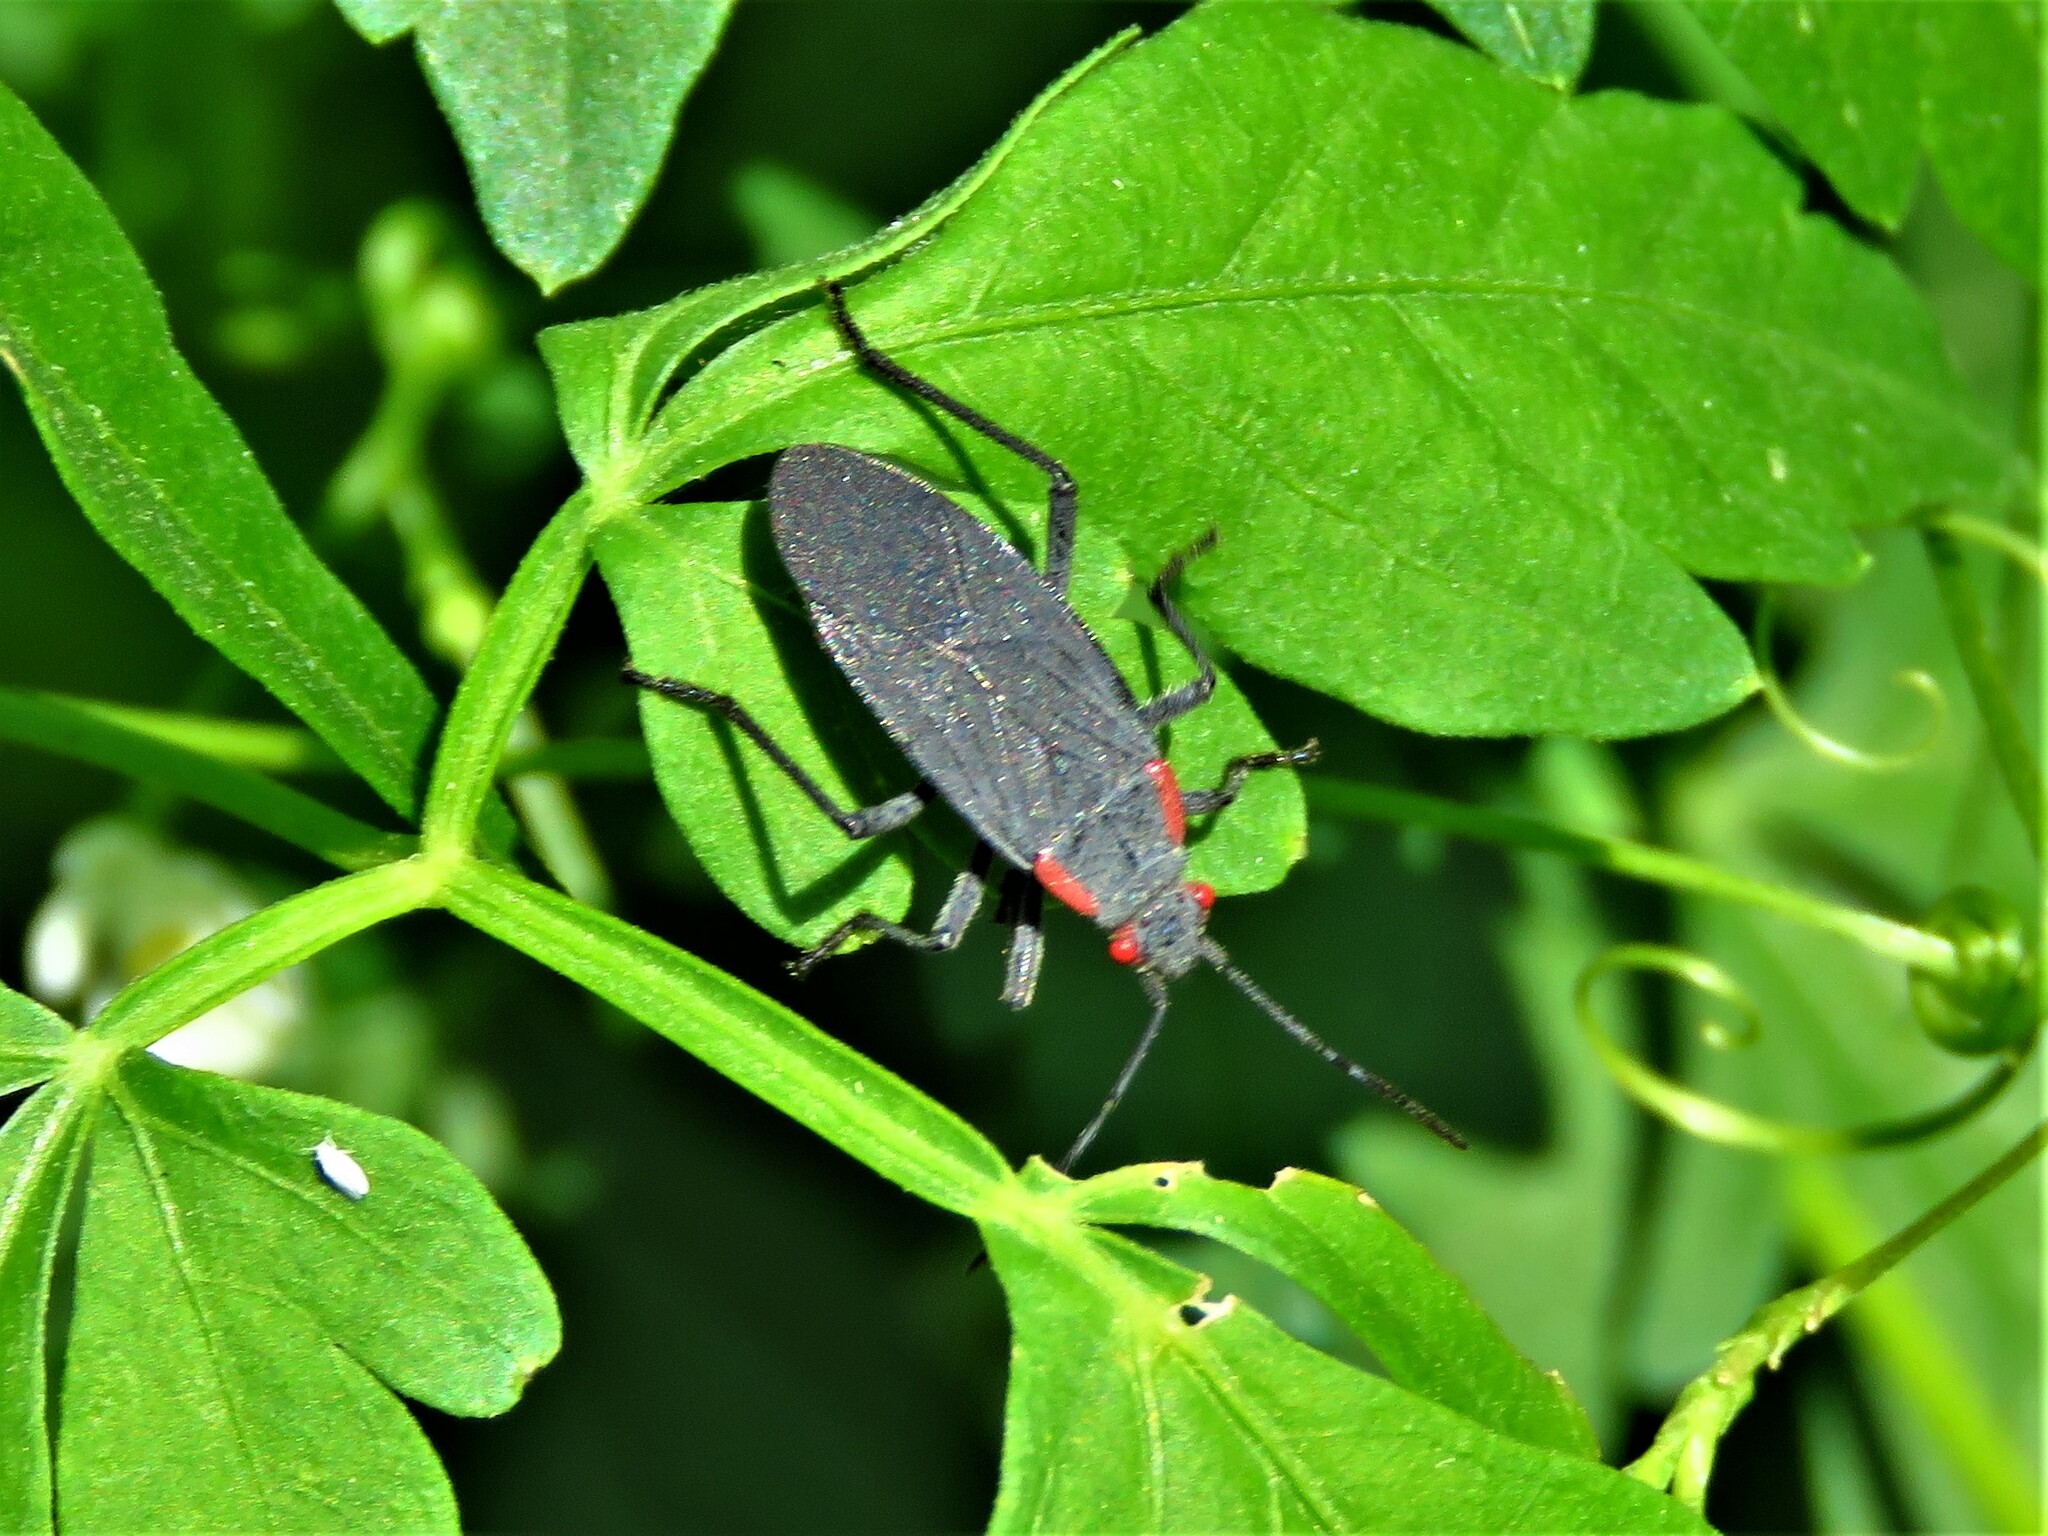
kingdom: Animalia
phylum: Arthropoda
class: Insecta
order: Hemiptera
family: Rhopalidae
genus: Jadera
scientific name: Jadera haematoloma
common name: Red-shouldered bug
